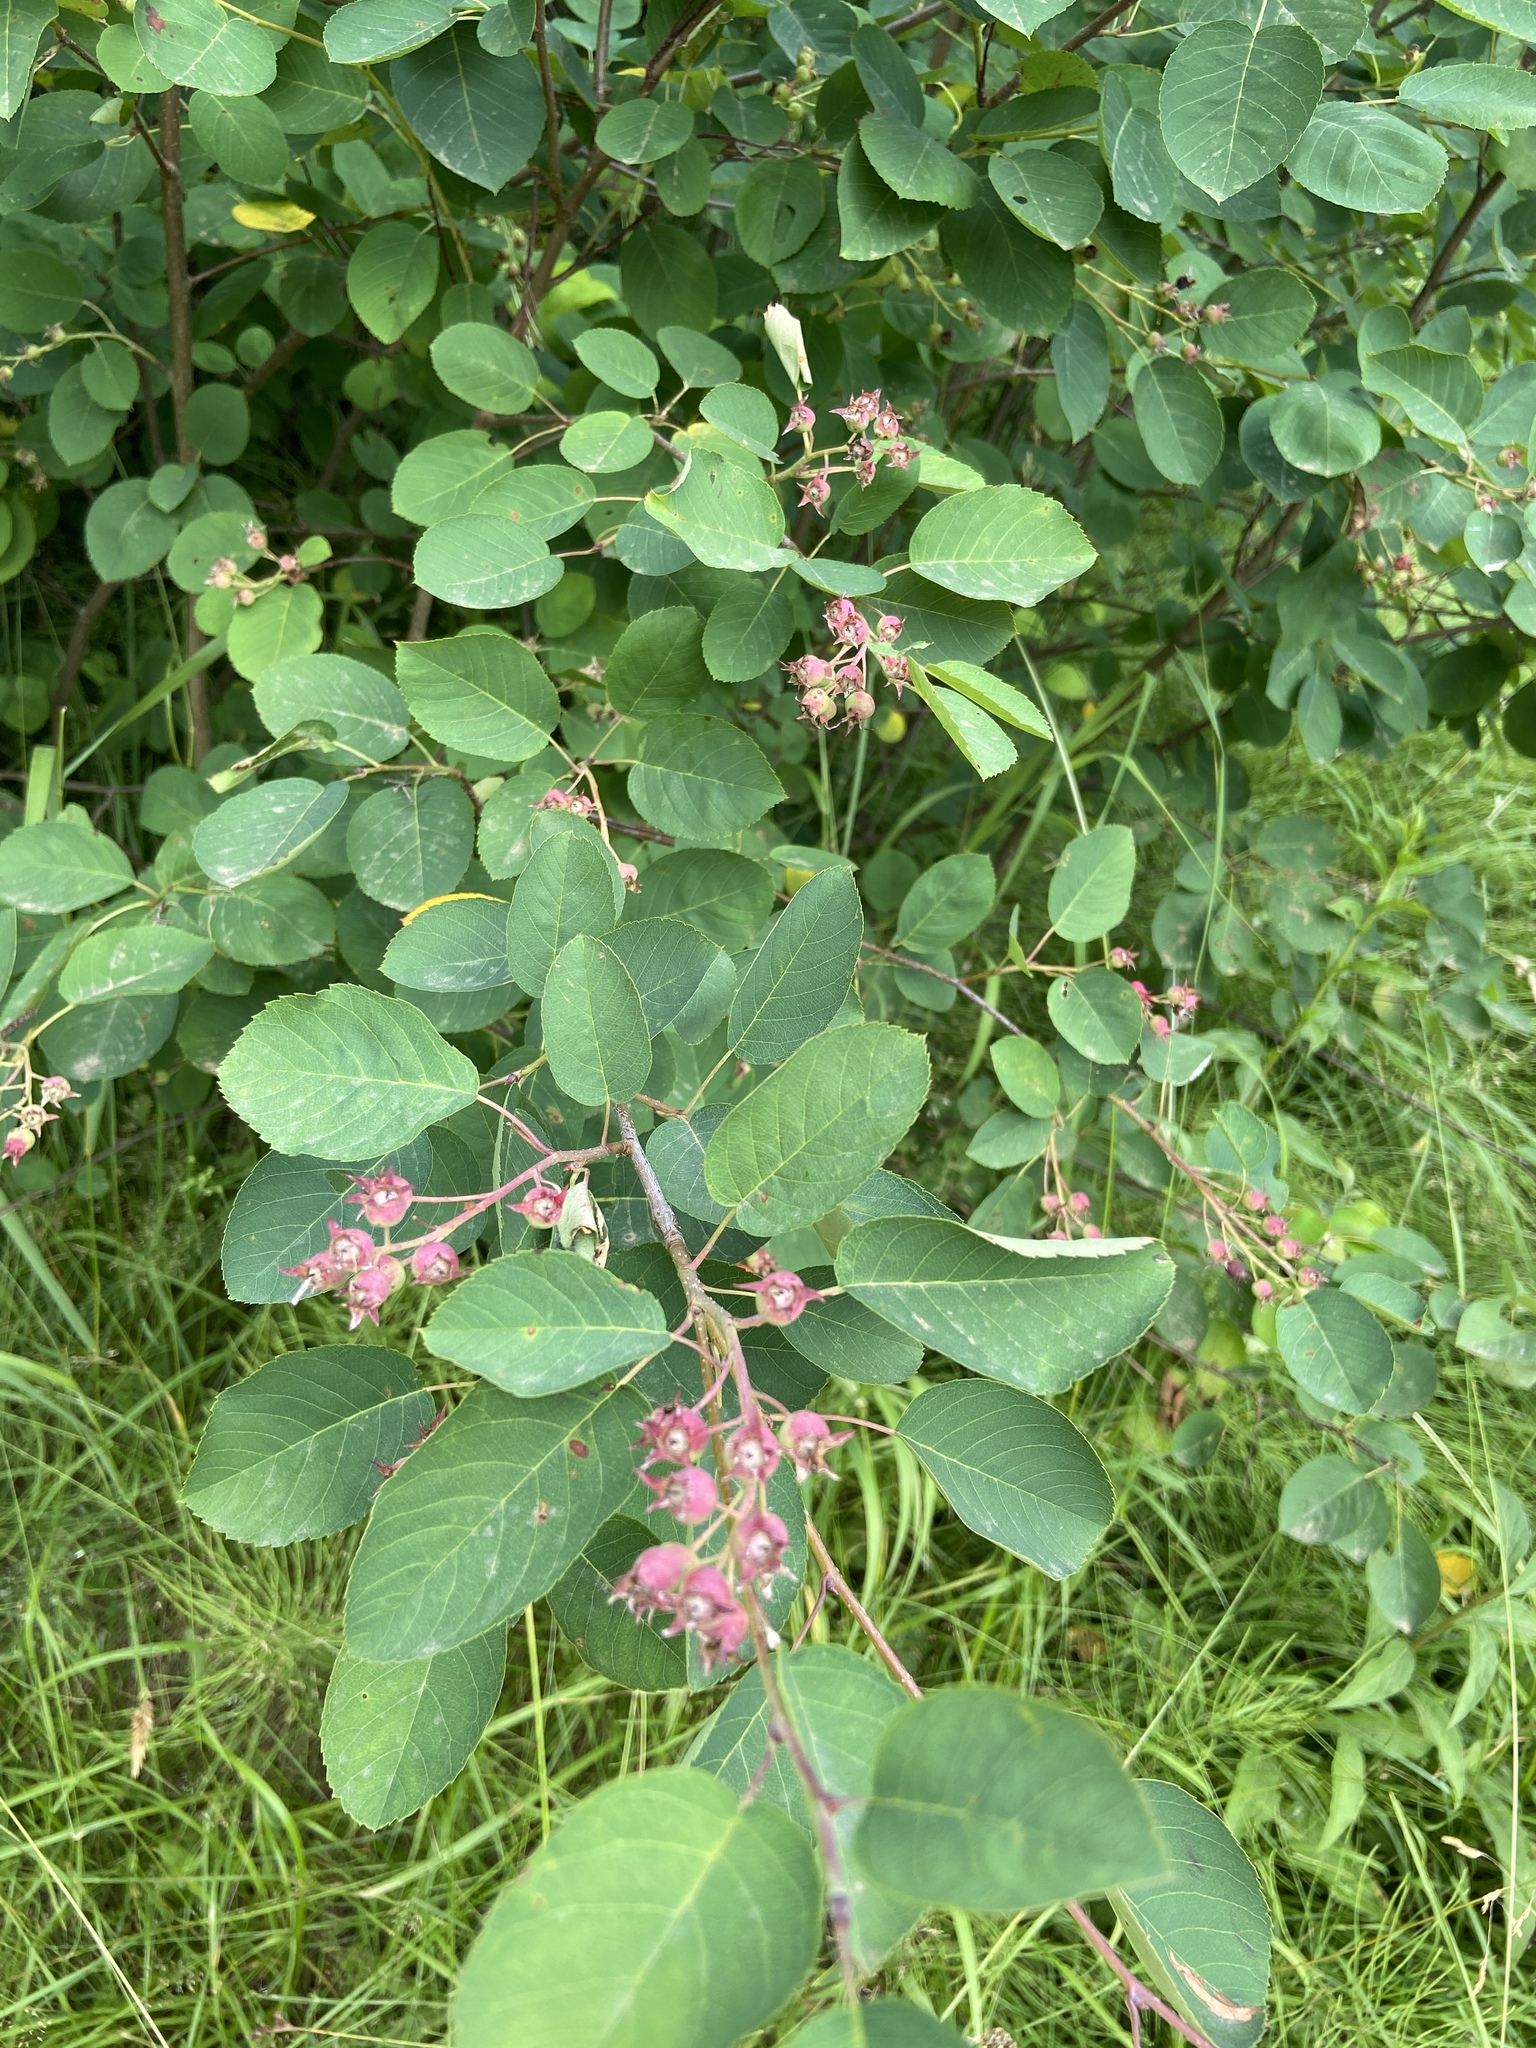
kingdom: Plantae
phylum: Tracheophyta
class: Magnoliopsida
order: Rosales
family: Rosaceae
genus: Amelanchier
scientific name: Amelanchier
